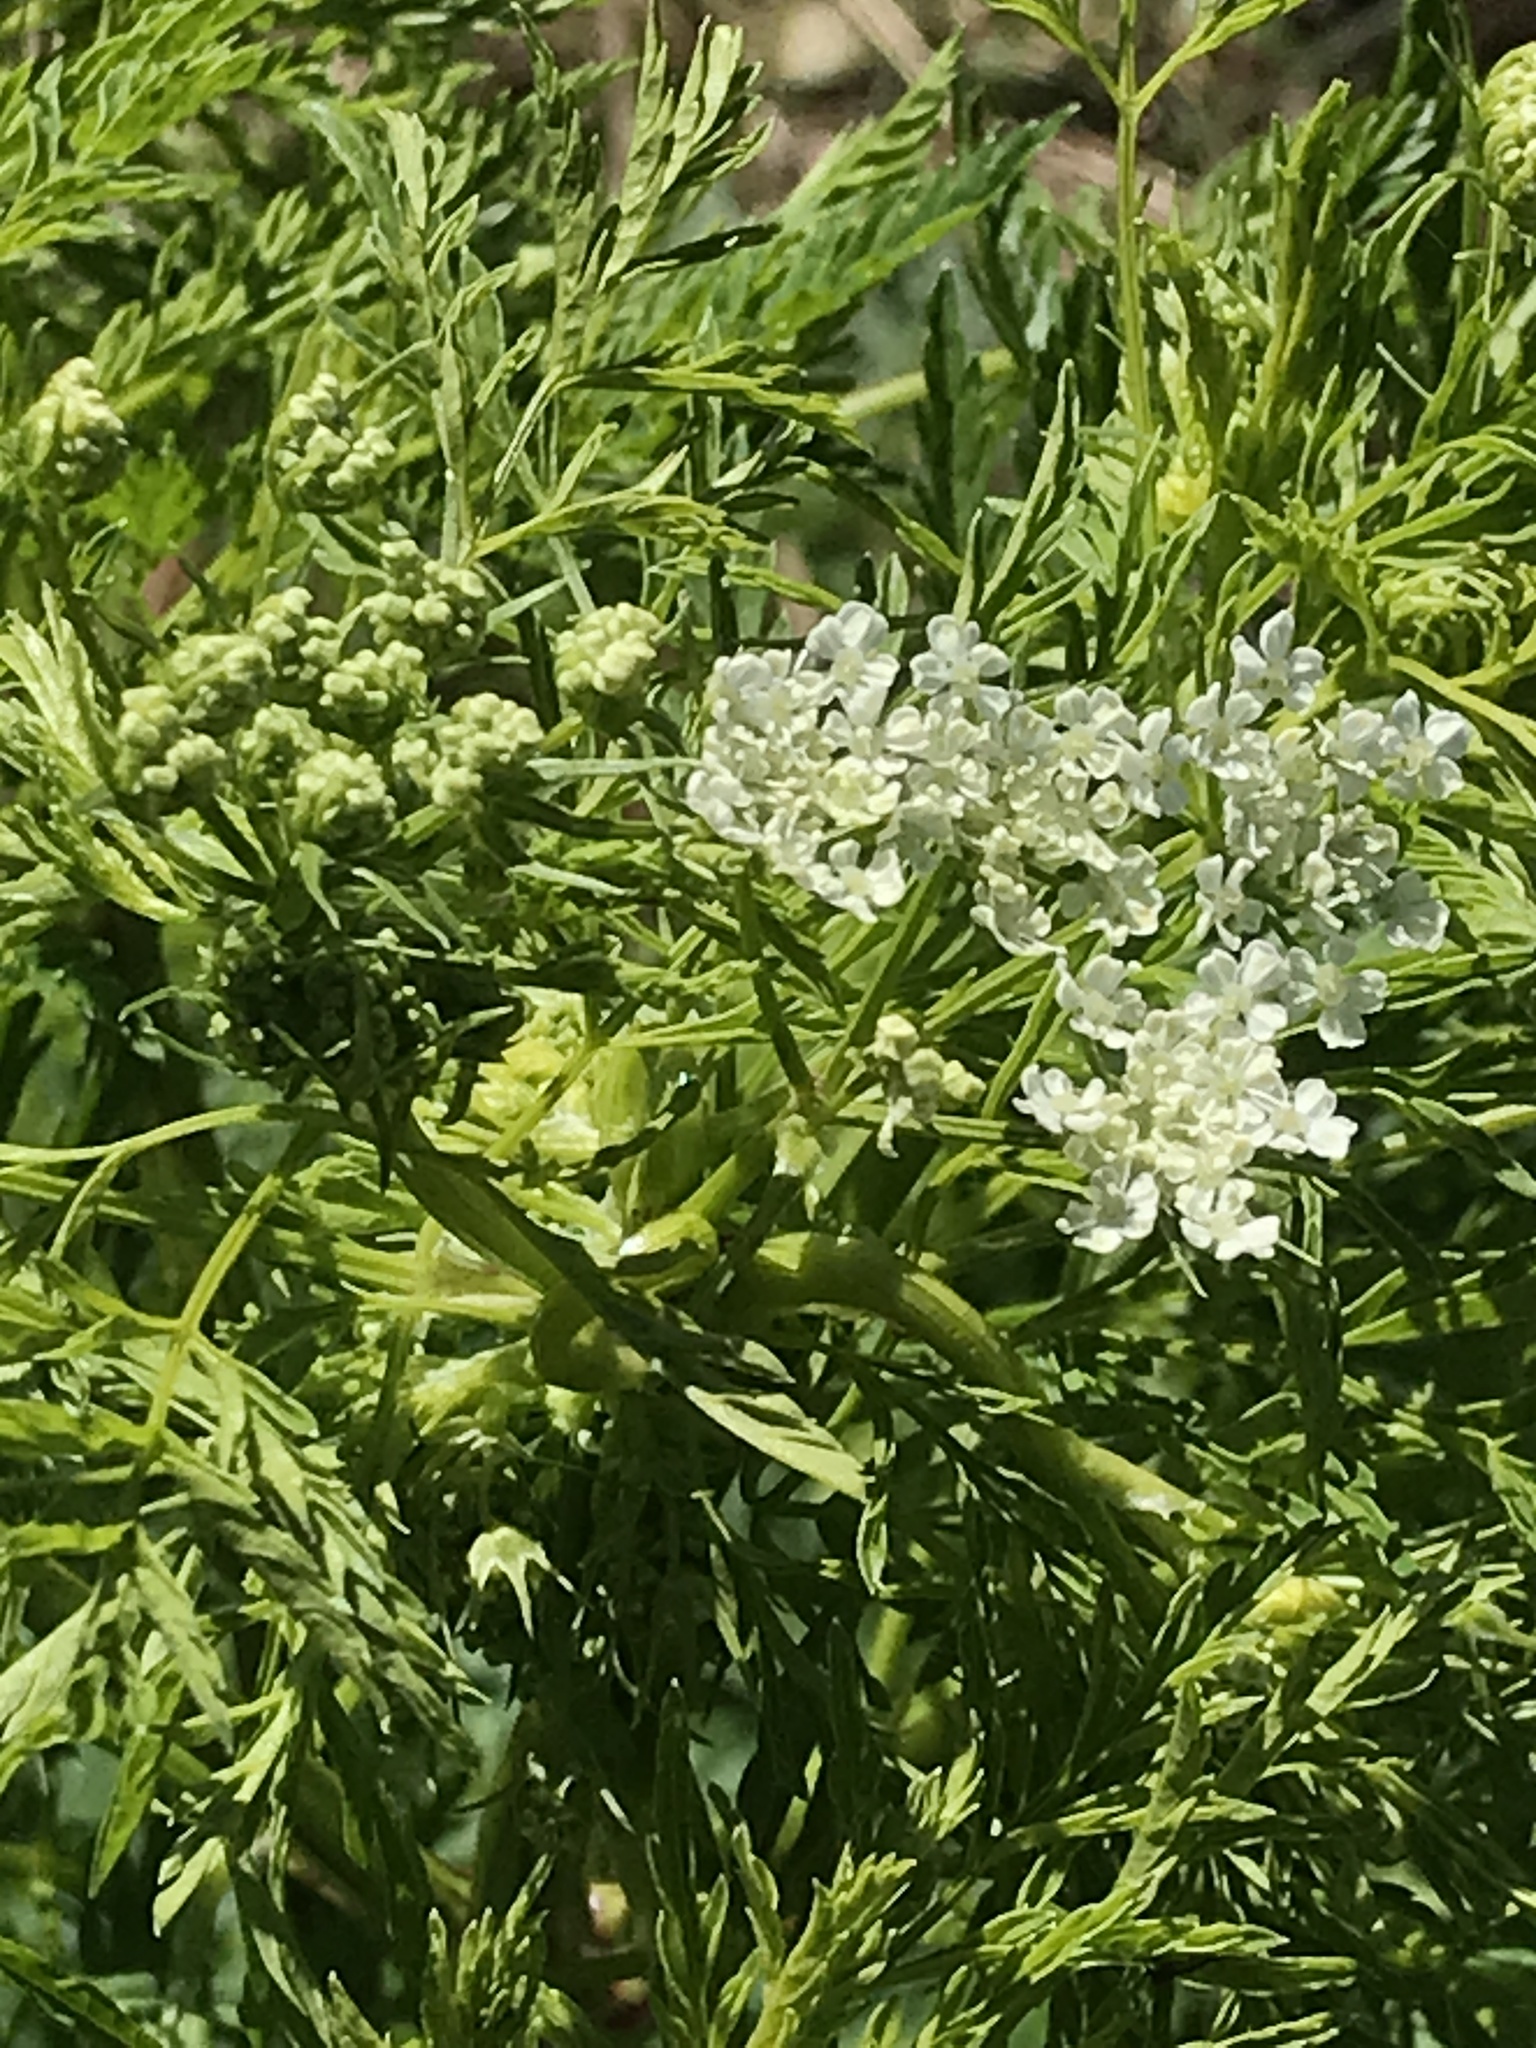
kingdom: Plantae
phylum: Tracheophyta
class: Magnoliopsida
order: Apiales
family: Apiaceae
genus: Conium
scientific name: Conium maculatum
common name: Hemlock
